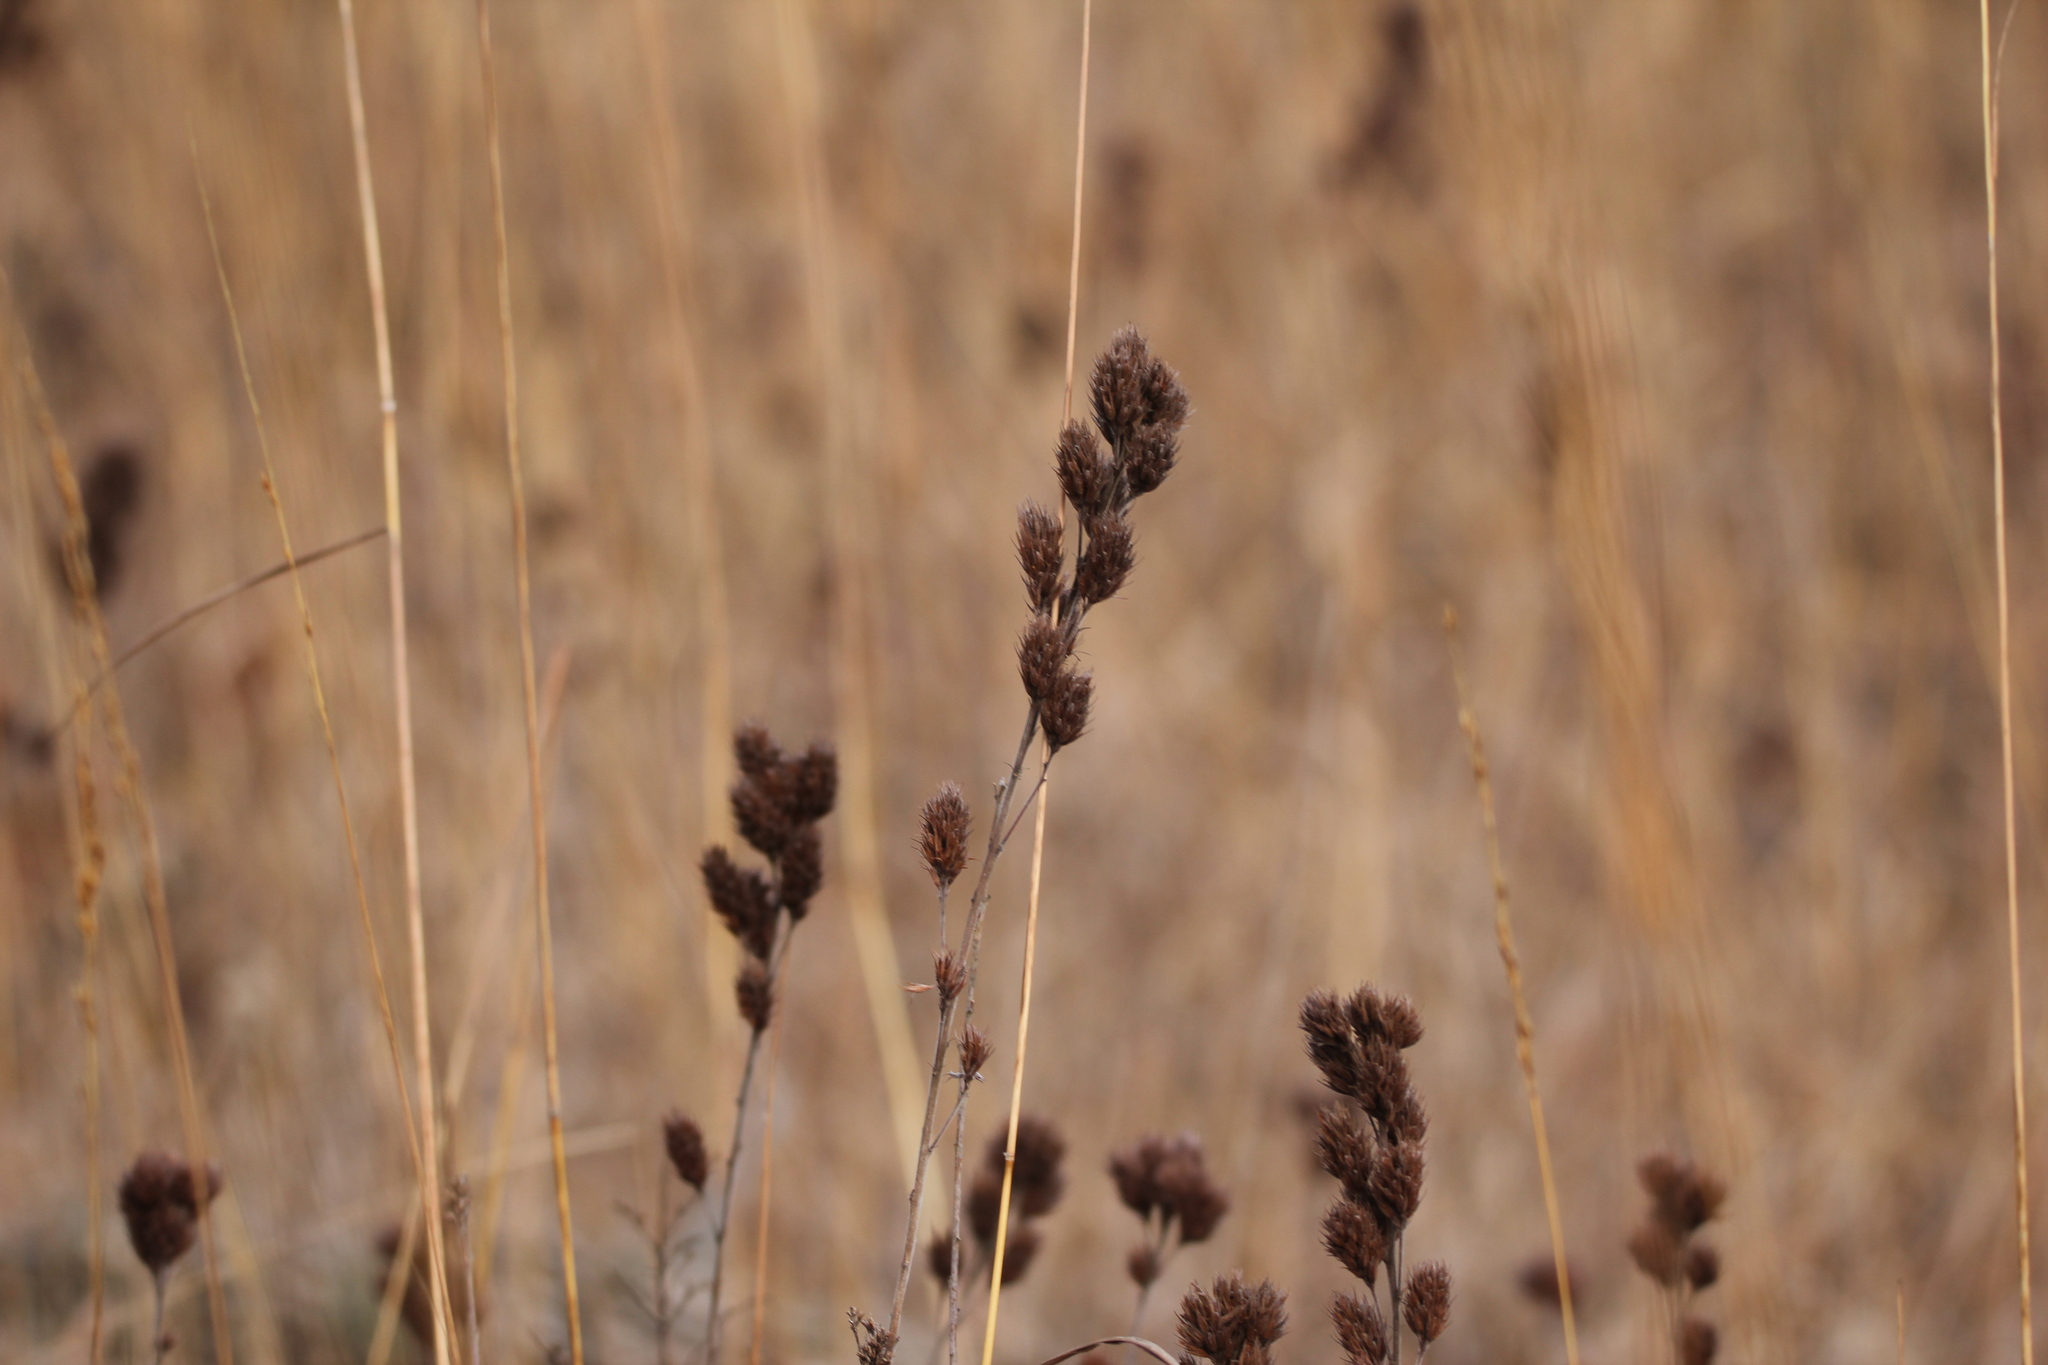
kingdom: Plantae
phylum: Tracheophyta
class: Magnoliopsida
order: Fabales
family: Fabaceae
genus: Lespedeza
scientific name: Lespedeza capitata
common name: Dusty clover
